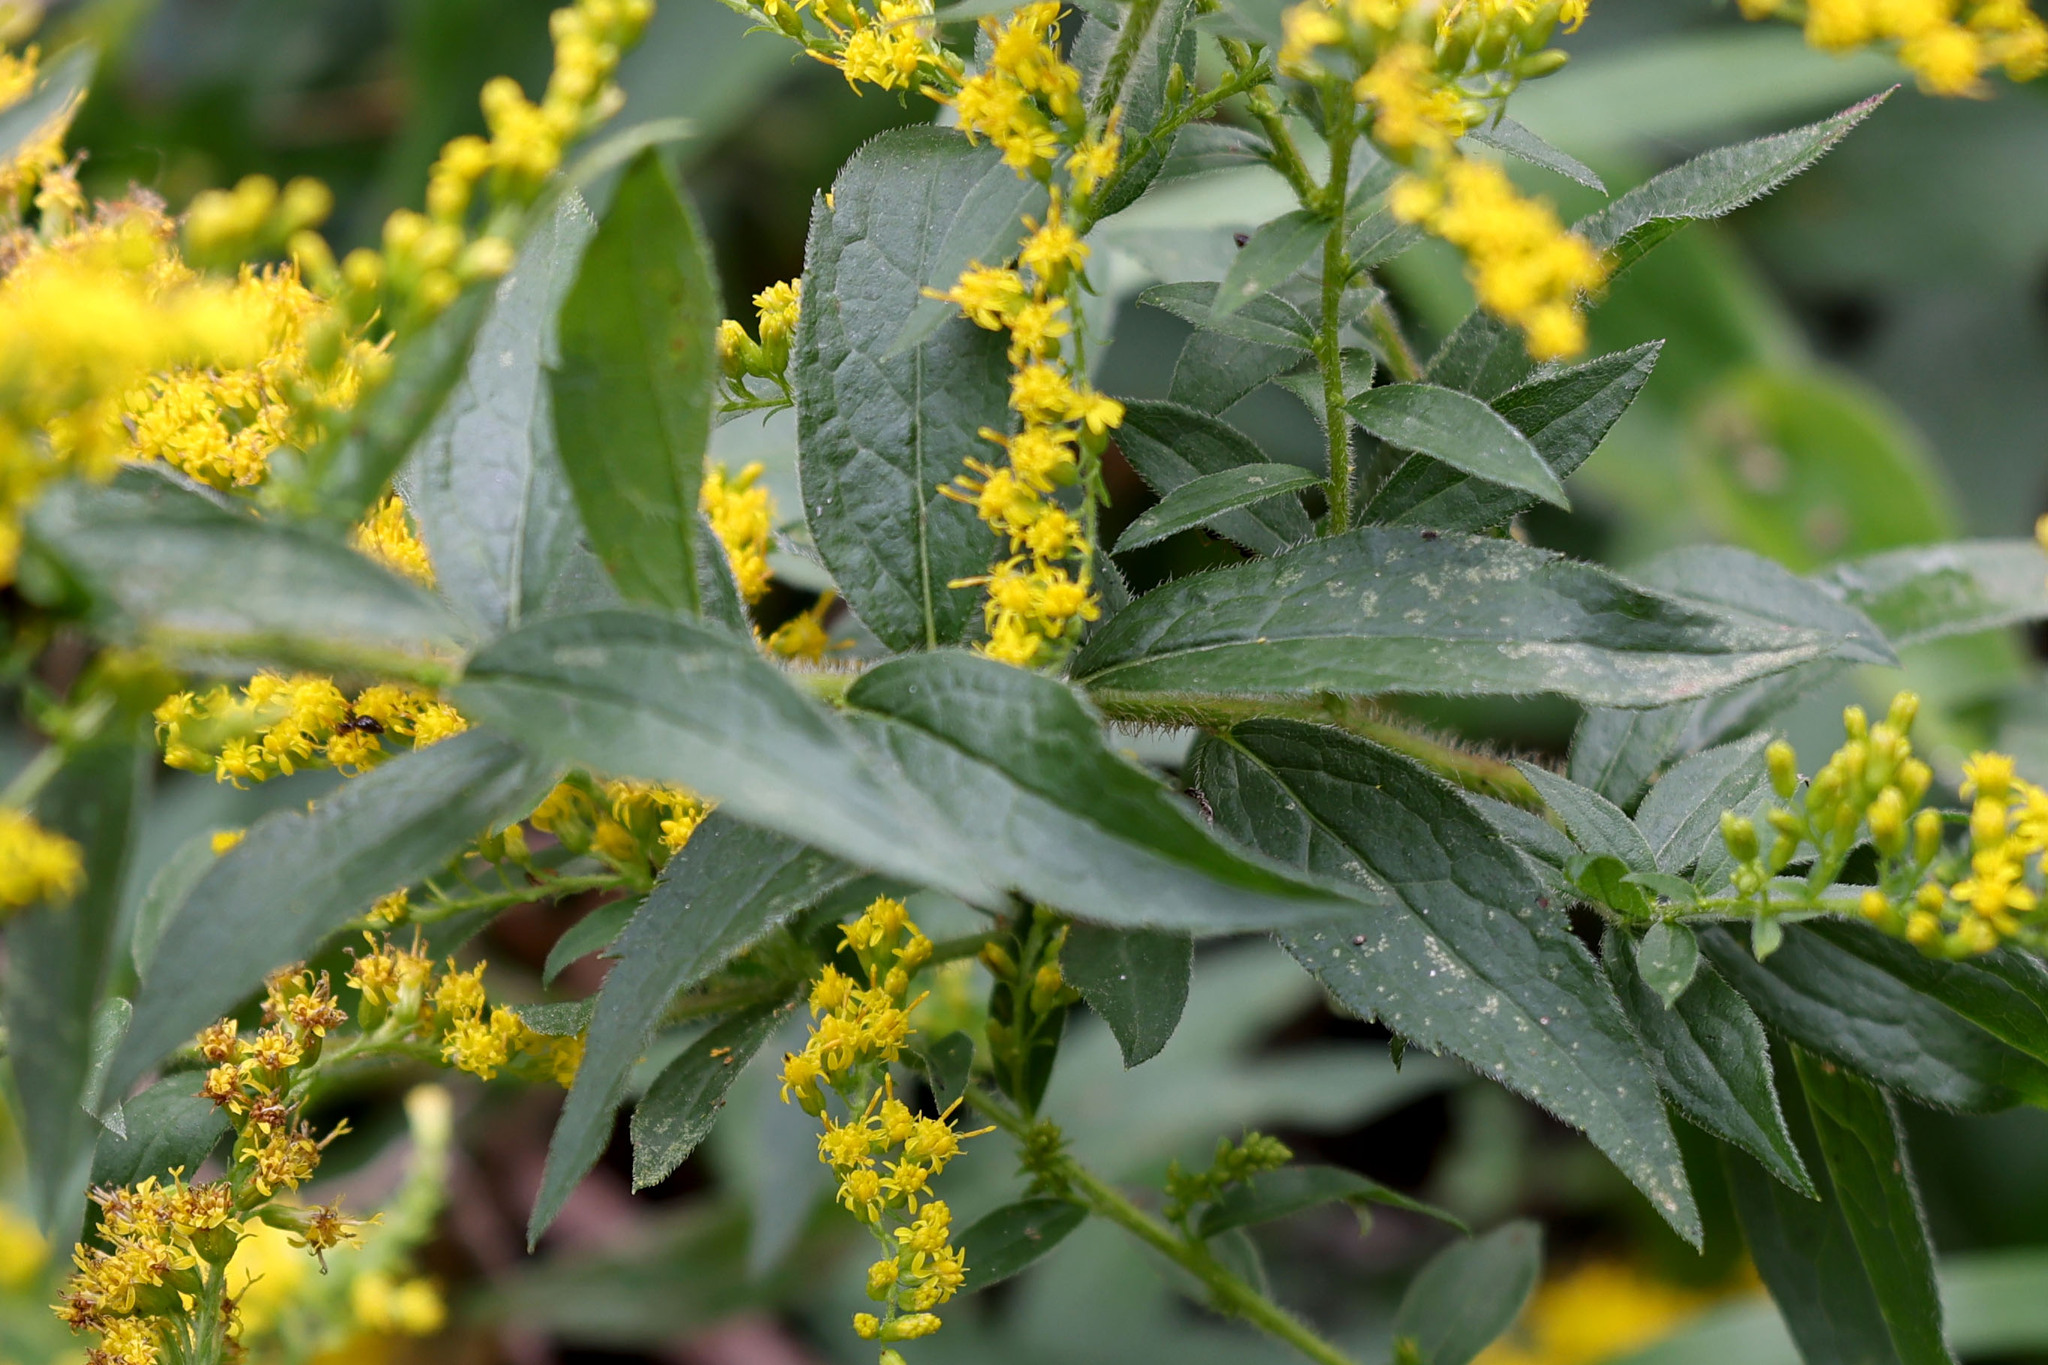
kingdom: Plantae
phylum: Tracheophyta
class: Magnoliopsida
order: Asterales
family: Asteraceae
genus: Solidago
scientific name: Solidago rugosa
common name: Rough-stemmed goldenrod
